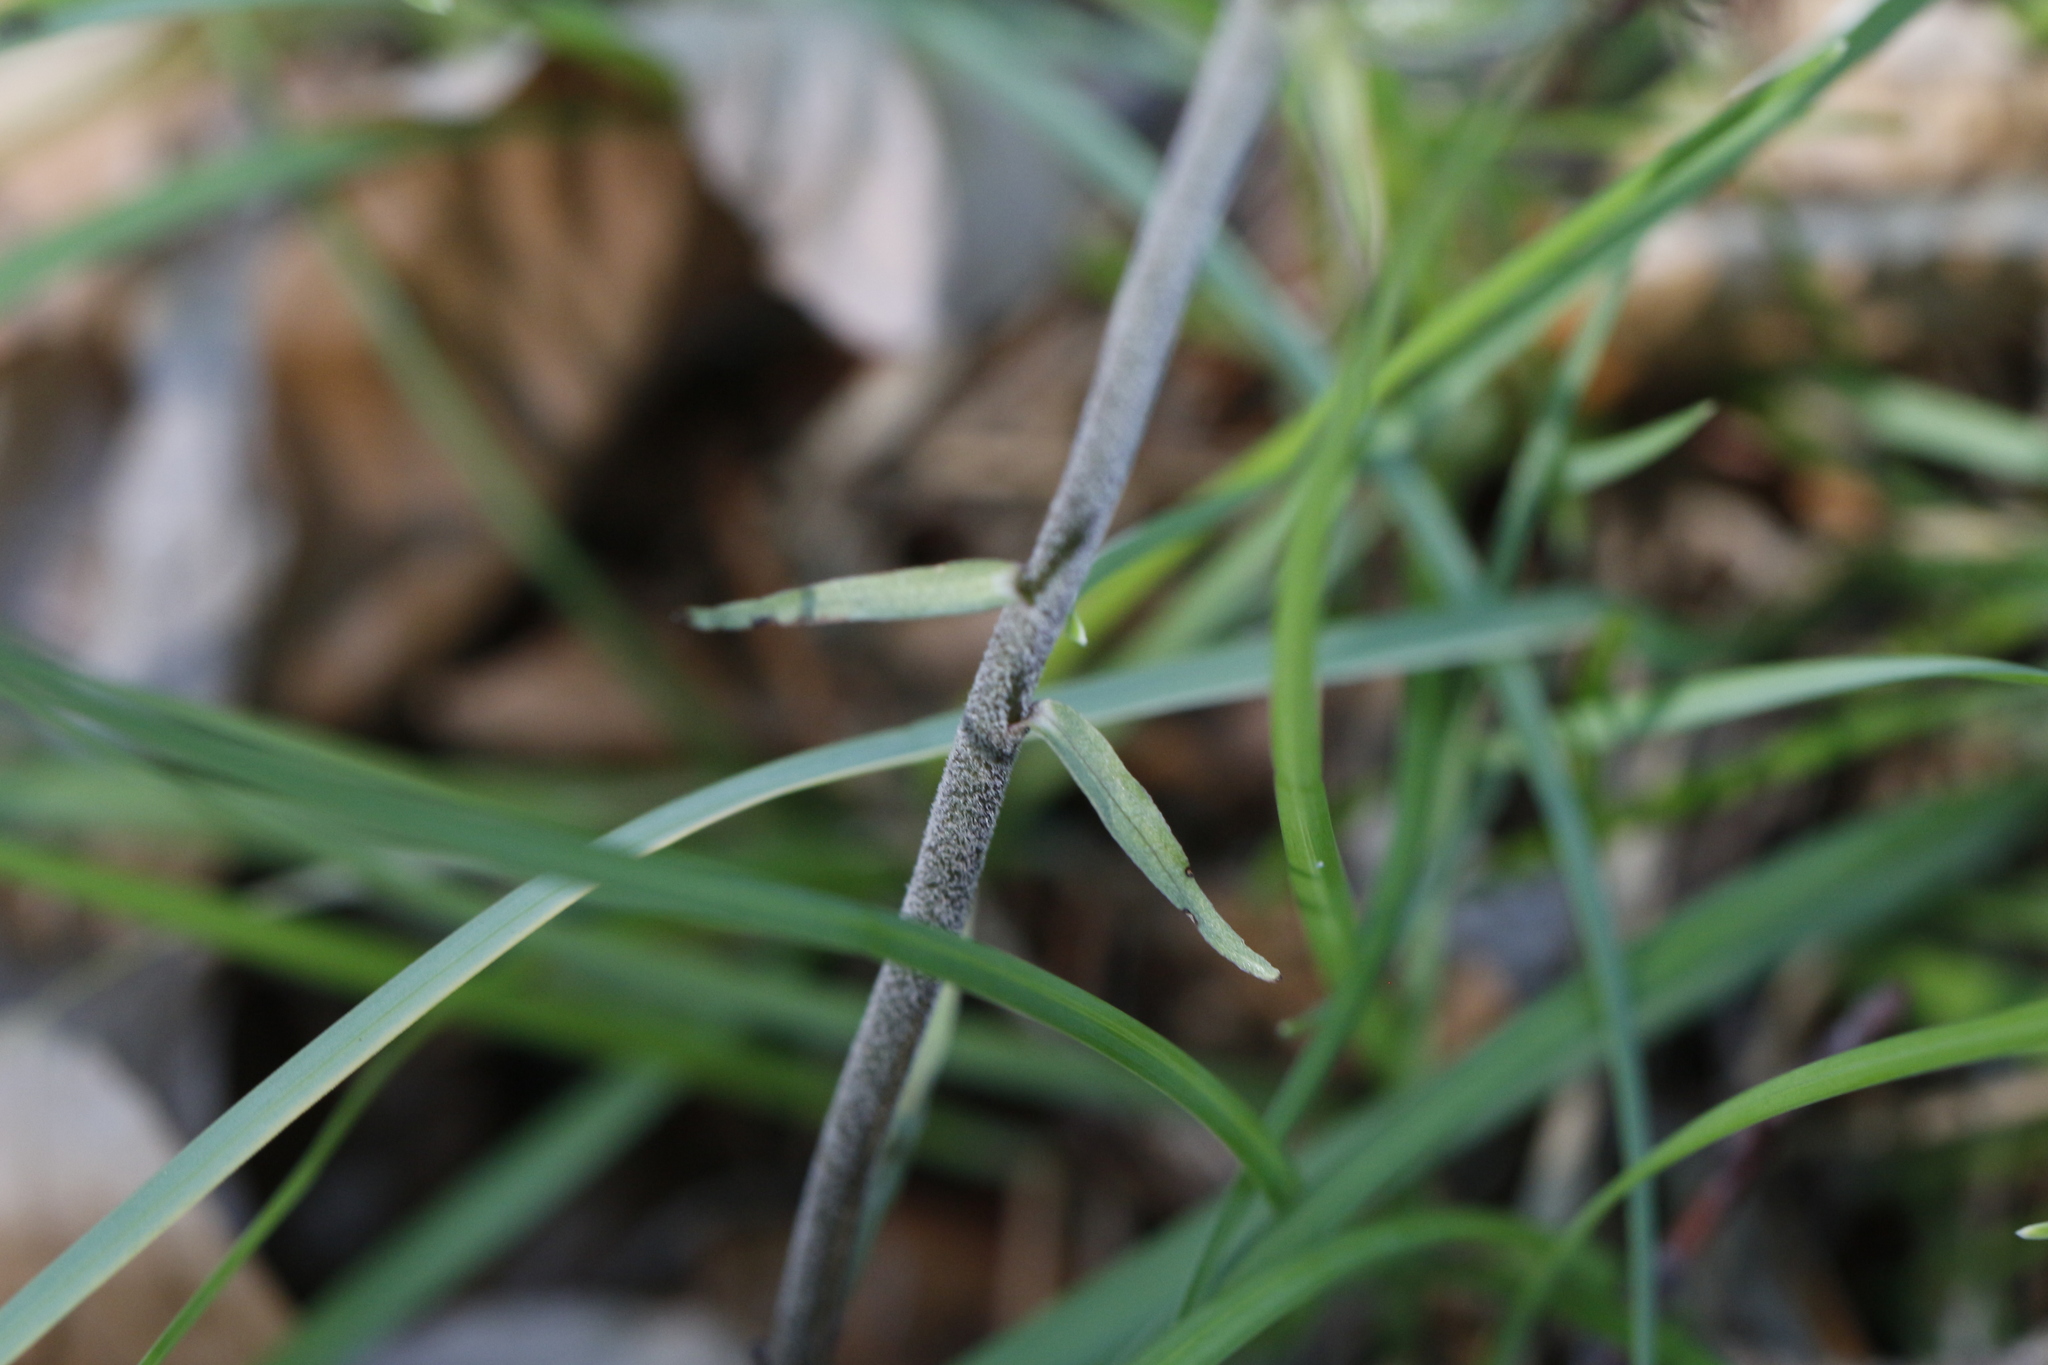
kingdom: Plantae
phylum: Tracheophyta
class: Liliopsida
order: Asparagales
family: Orchidaceae
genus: Epipactis
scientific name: Epipactis microphylla
